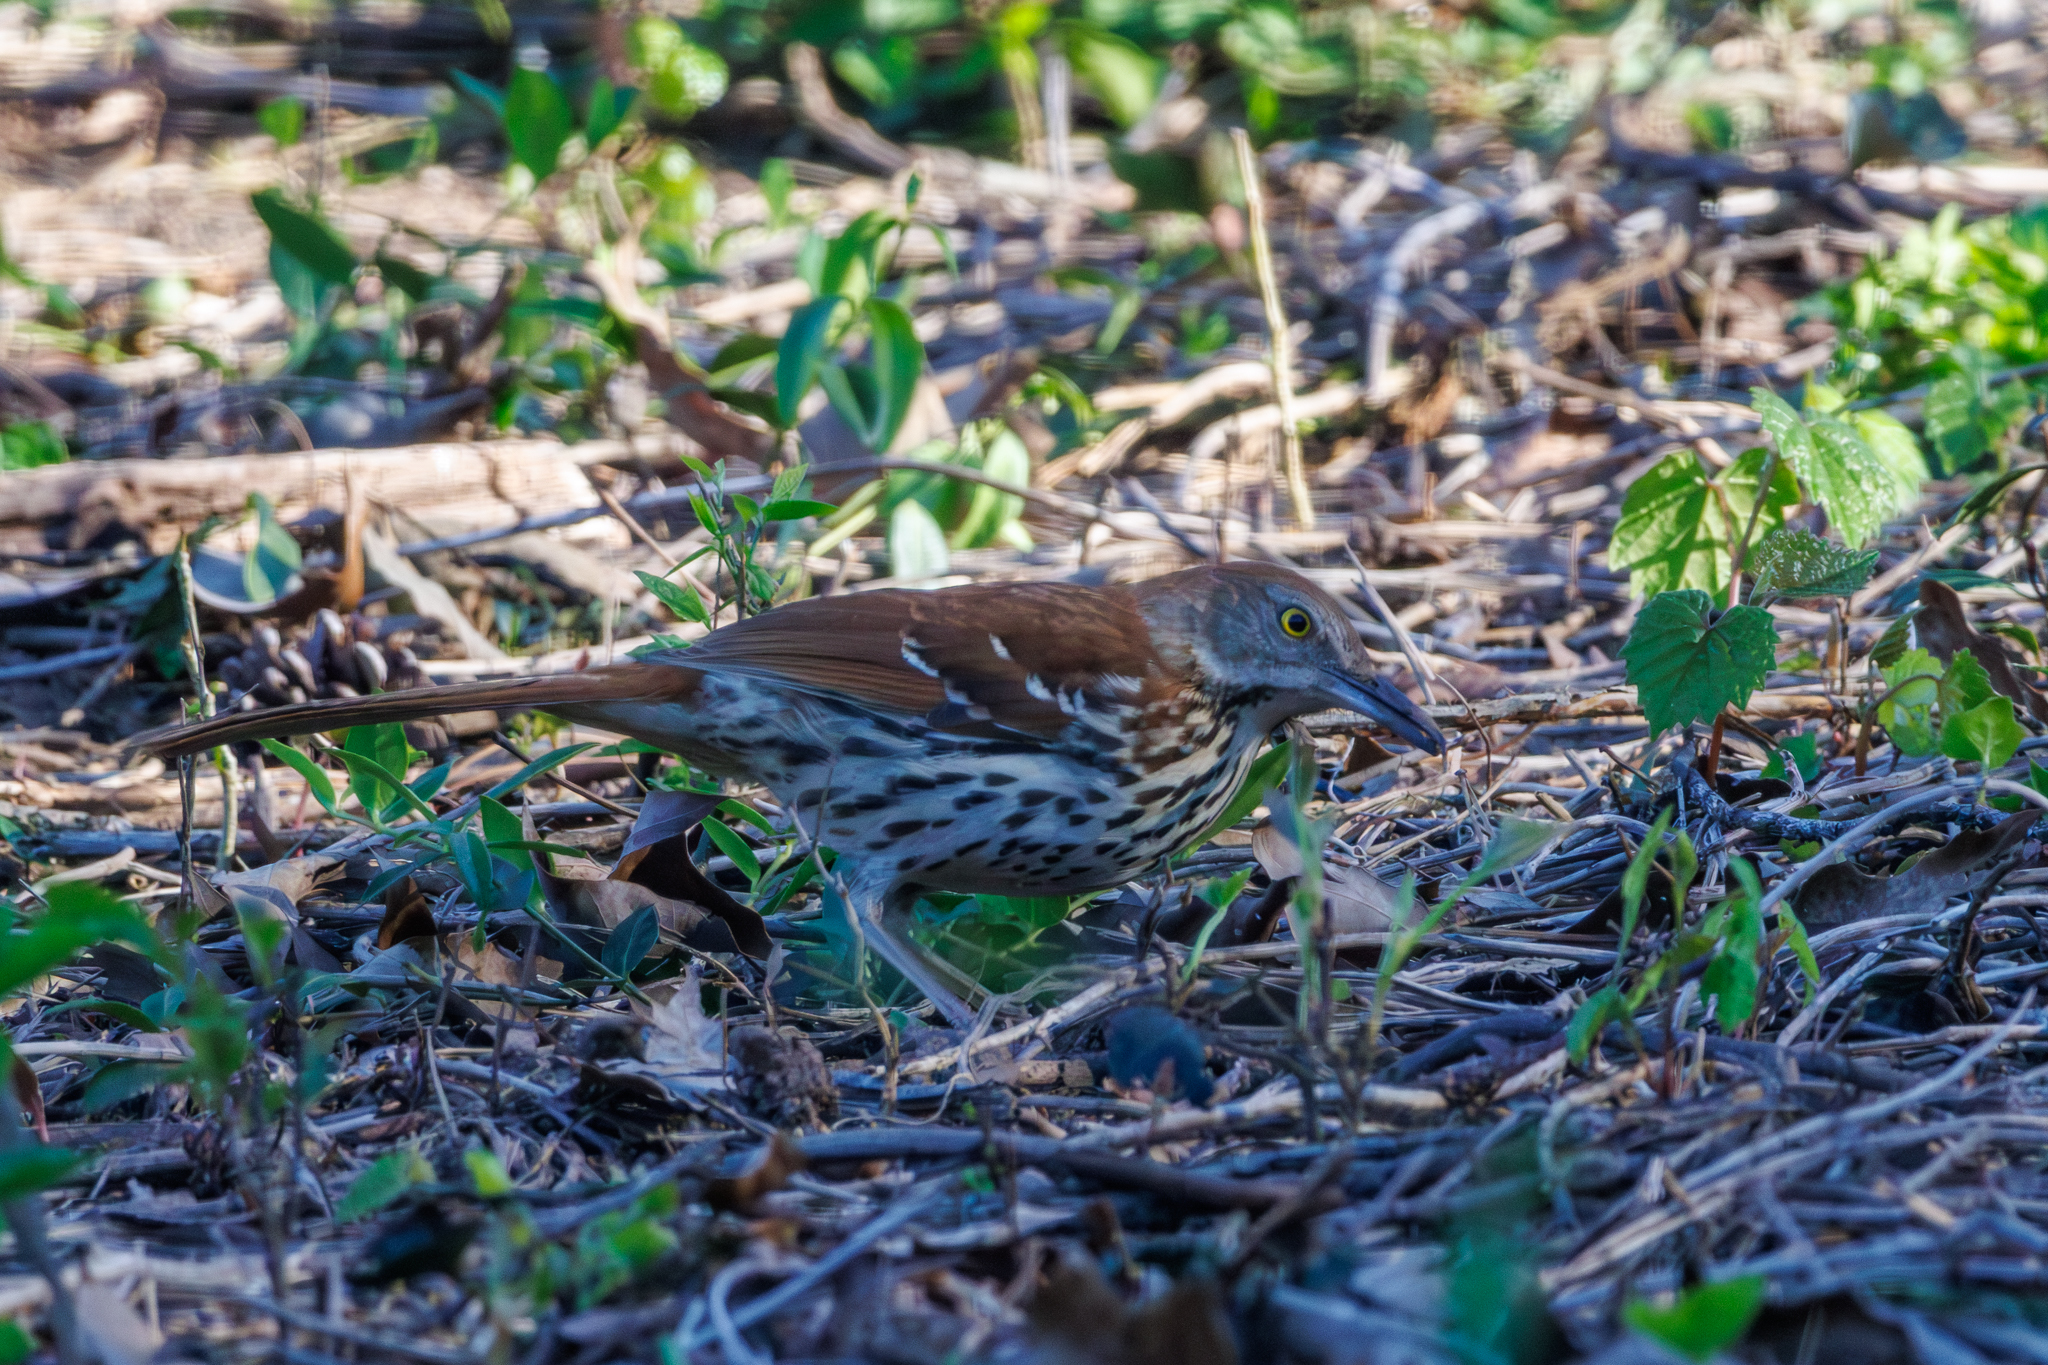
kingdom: Animalia
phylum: Chordata
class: Aves
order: Passeriformes
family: Mimidae
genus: Toxostoma
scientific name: Toxostoma rufum
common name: Brown thrasher
